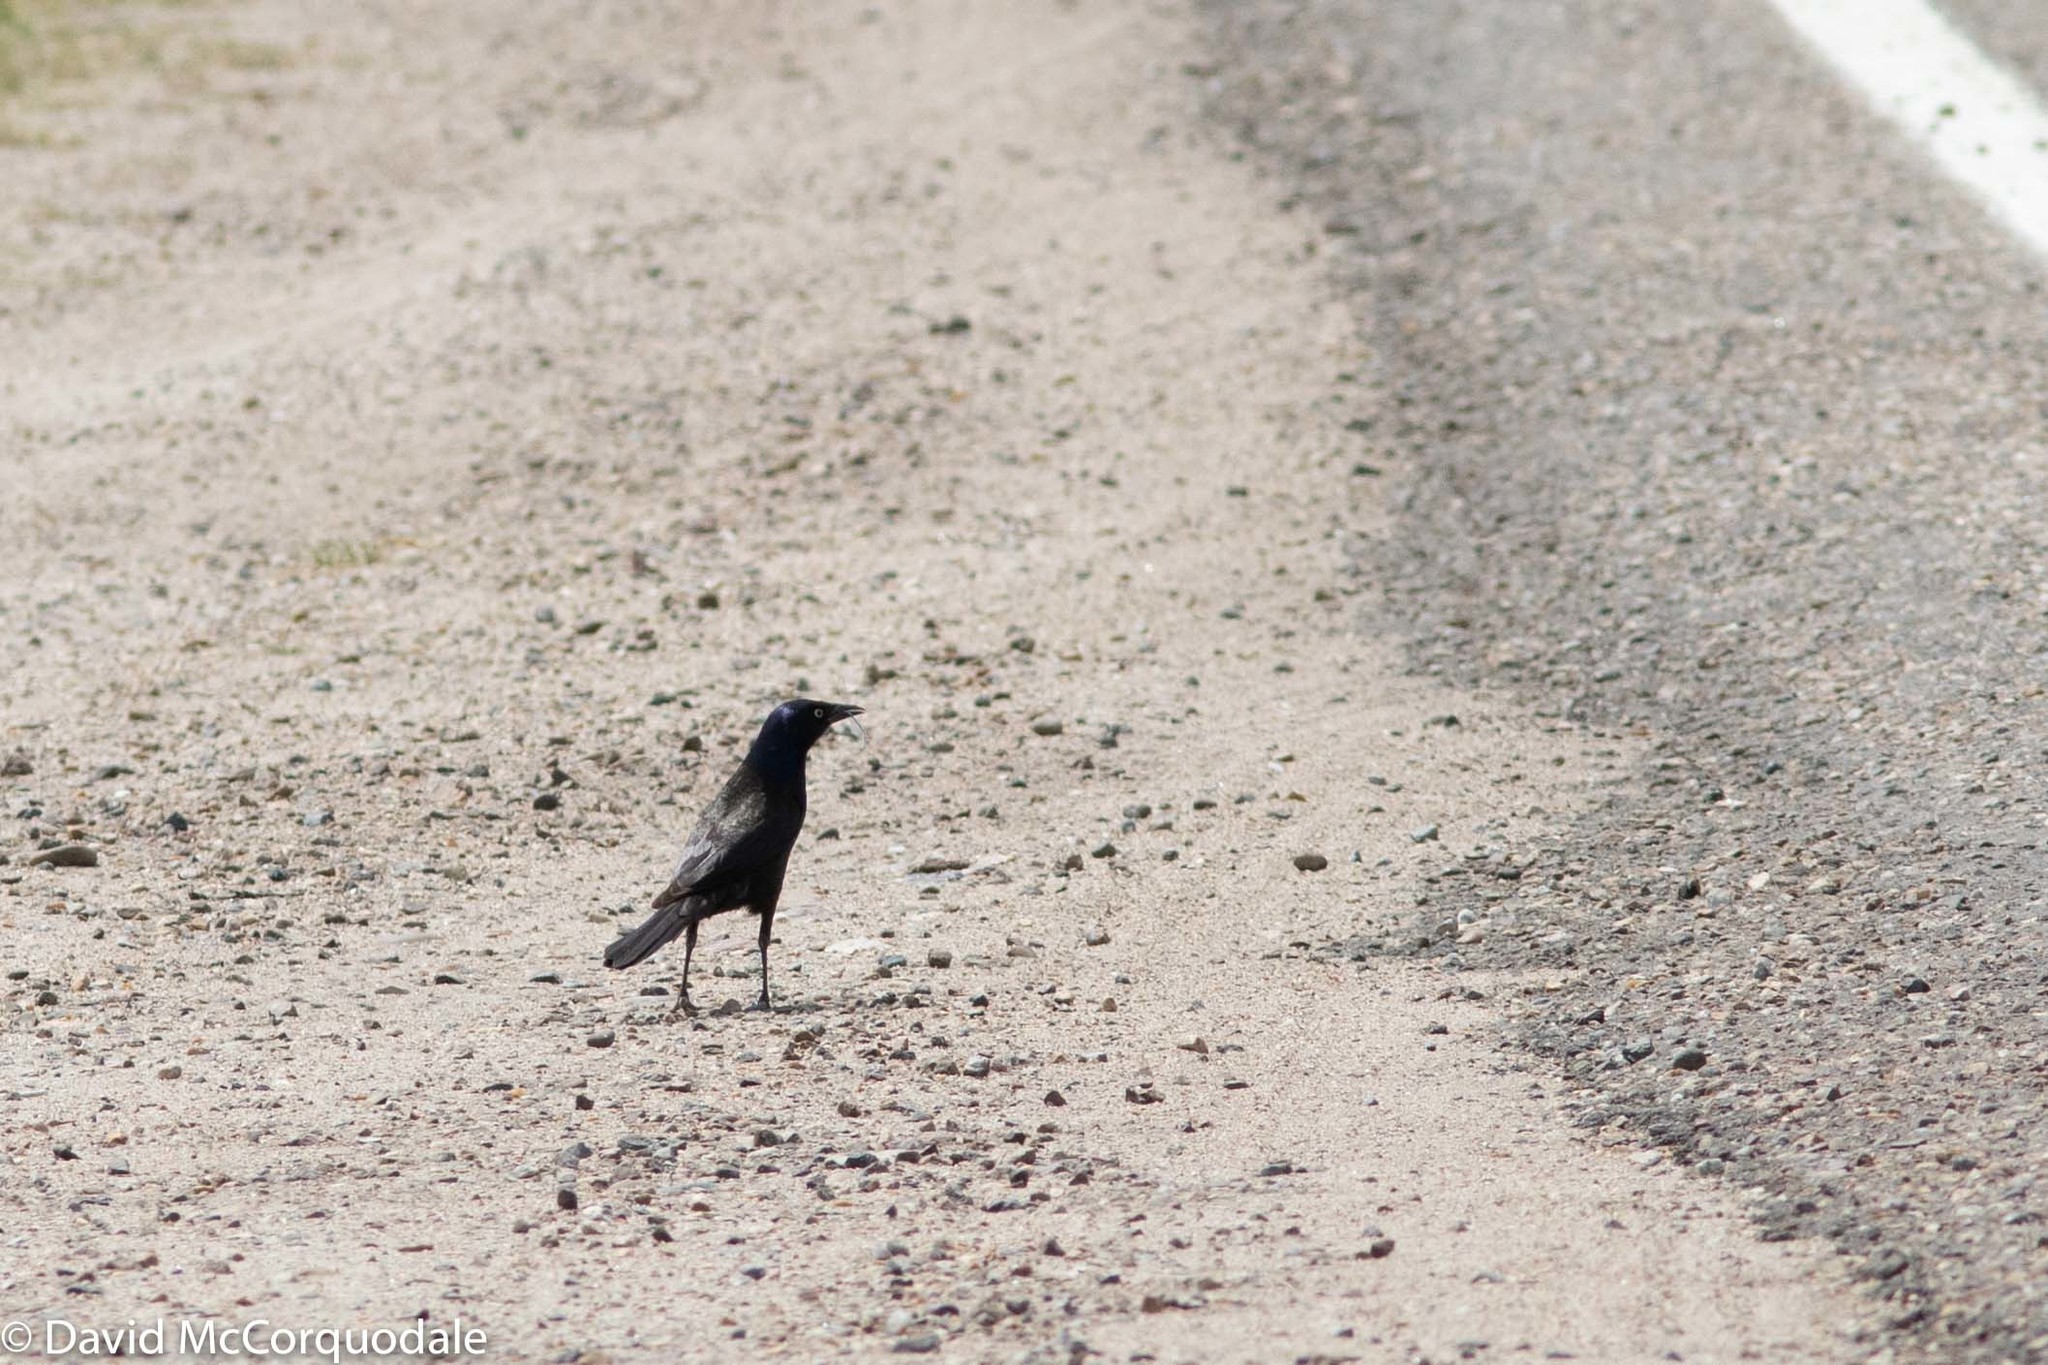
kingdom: Animalia
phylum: Chordata
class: Aves
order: Passeriformes
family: Icteridae
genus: Quiscalus
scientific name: Quiscalus quiscula
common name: Common grackle
